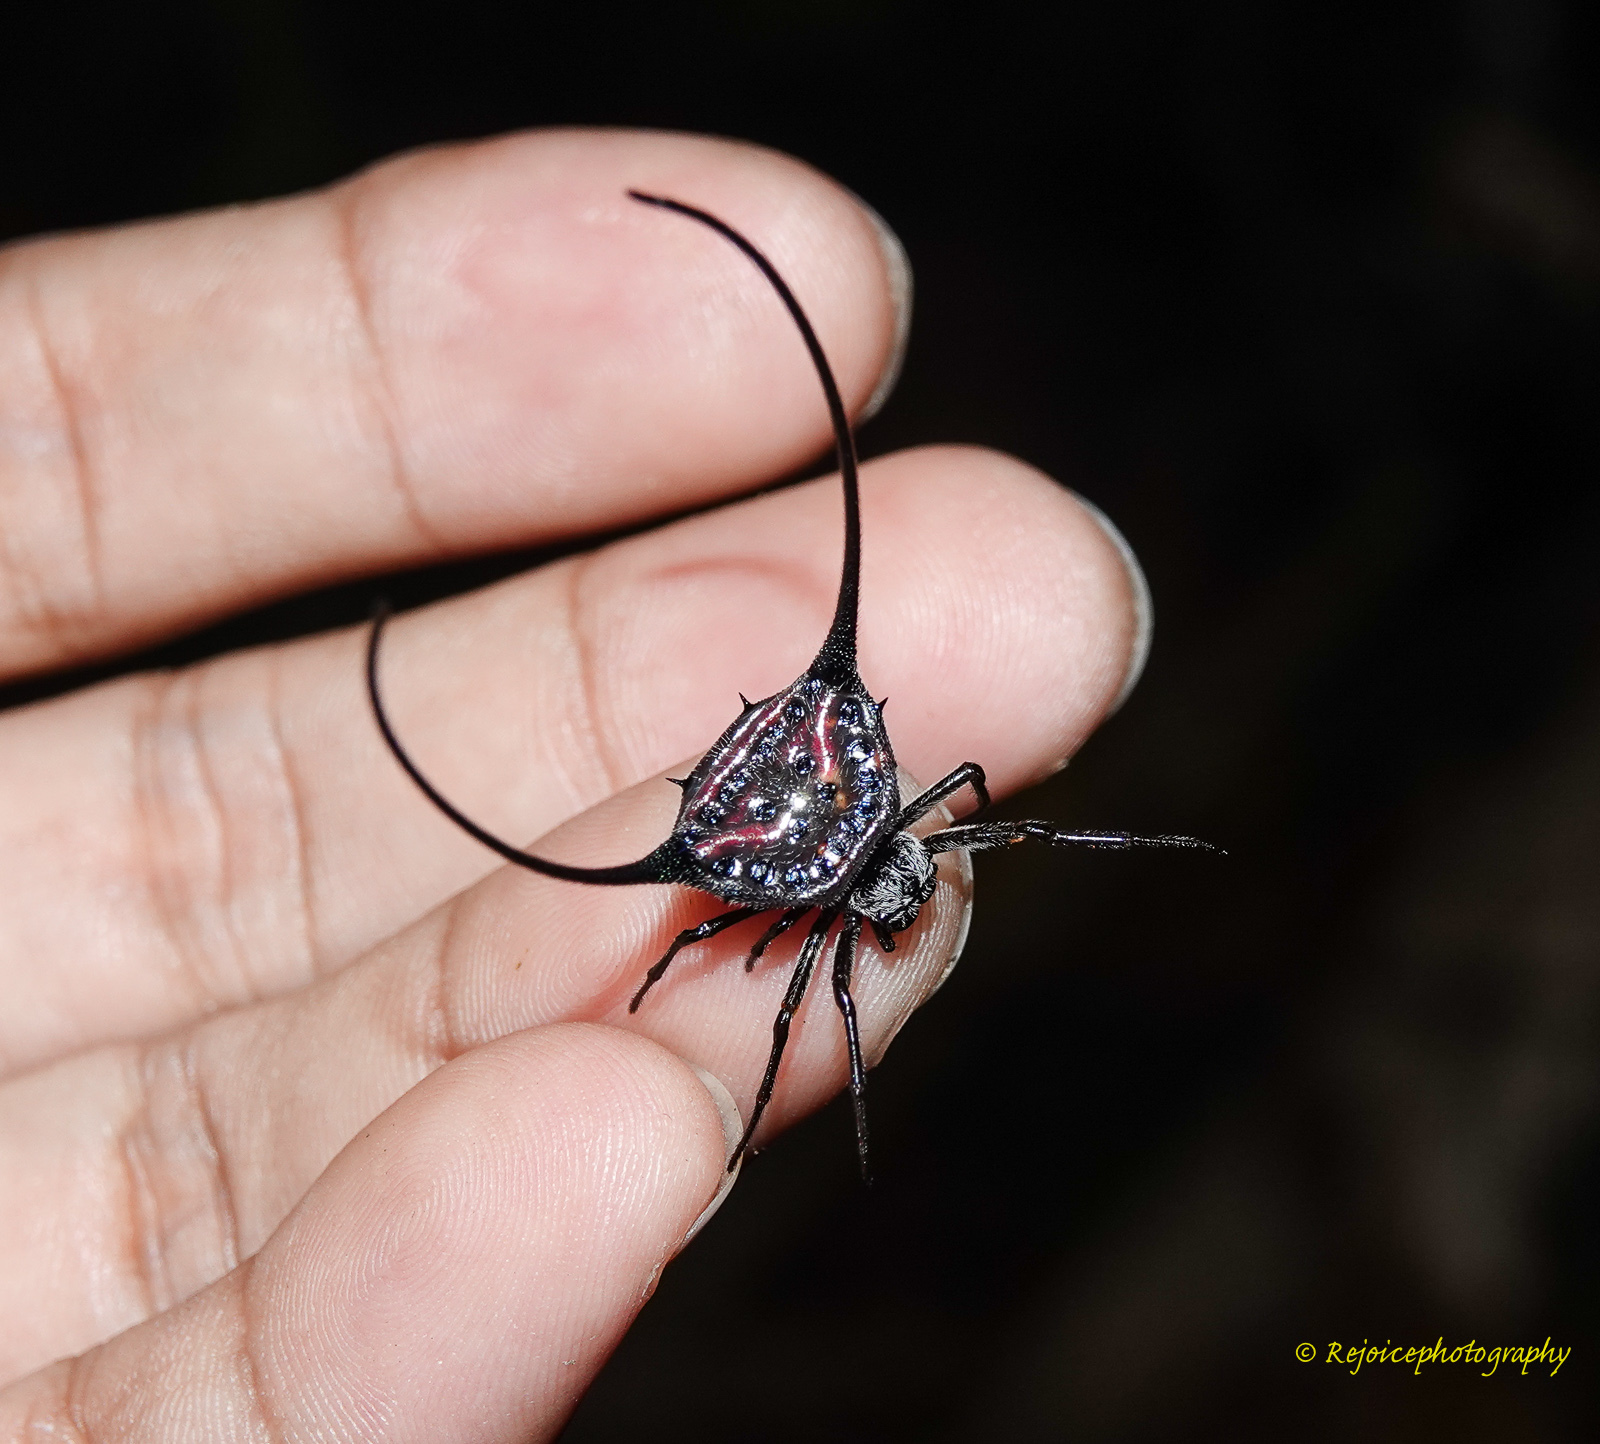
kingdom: Animalia
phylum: Arthropoda
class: Arachnida
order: Araneae
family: Araneidae
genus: Macracantha
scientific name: Macracantha arcuata
